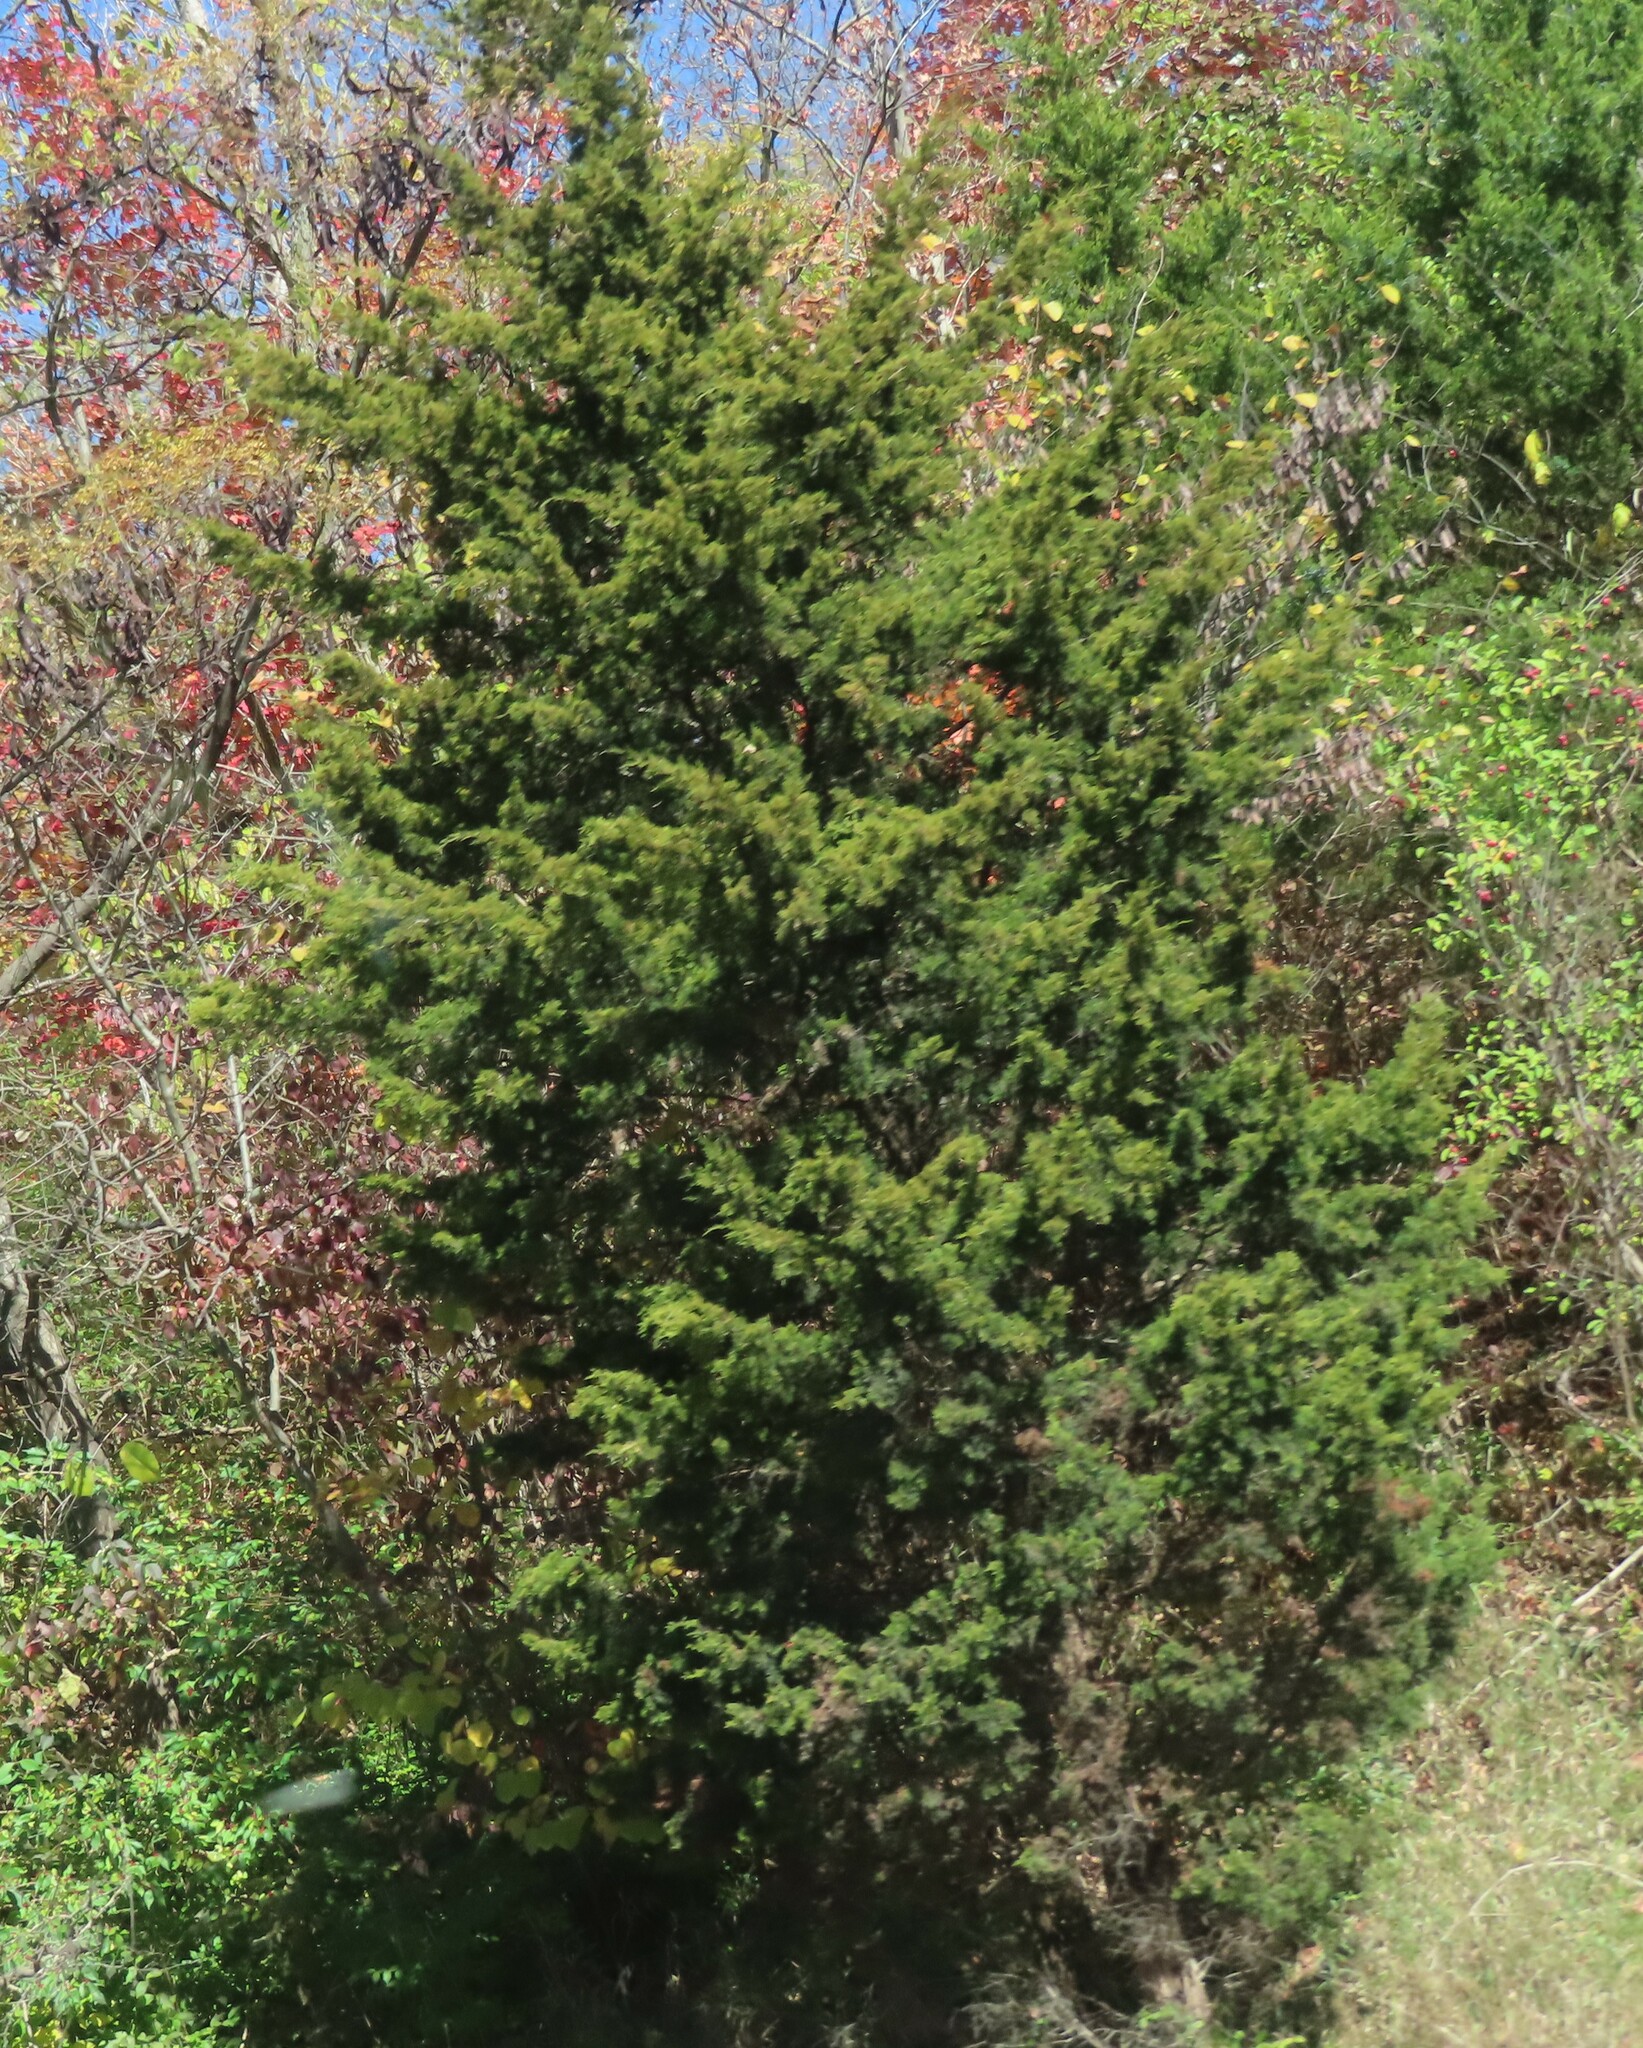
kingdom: Plantae
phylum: Tracheophyta
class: Pinopsida
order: Pinales
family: Cupressaceae
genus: Juniperus
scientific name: Juniperus virginiana
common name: Red juniper
